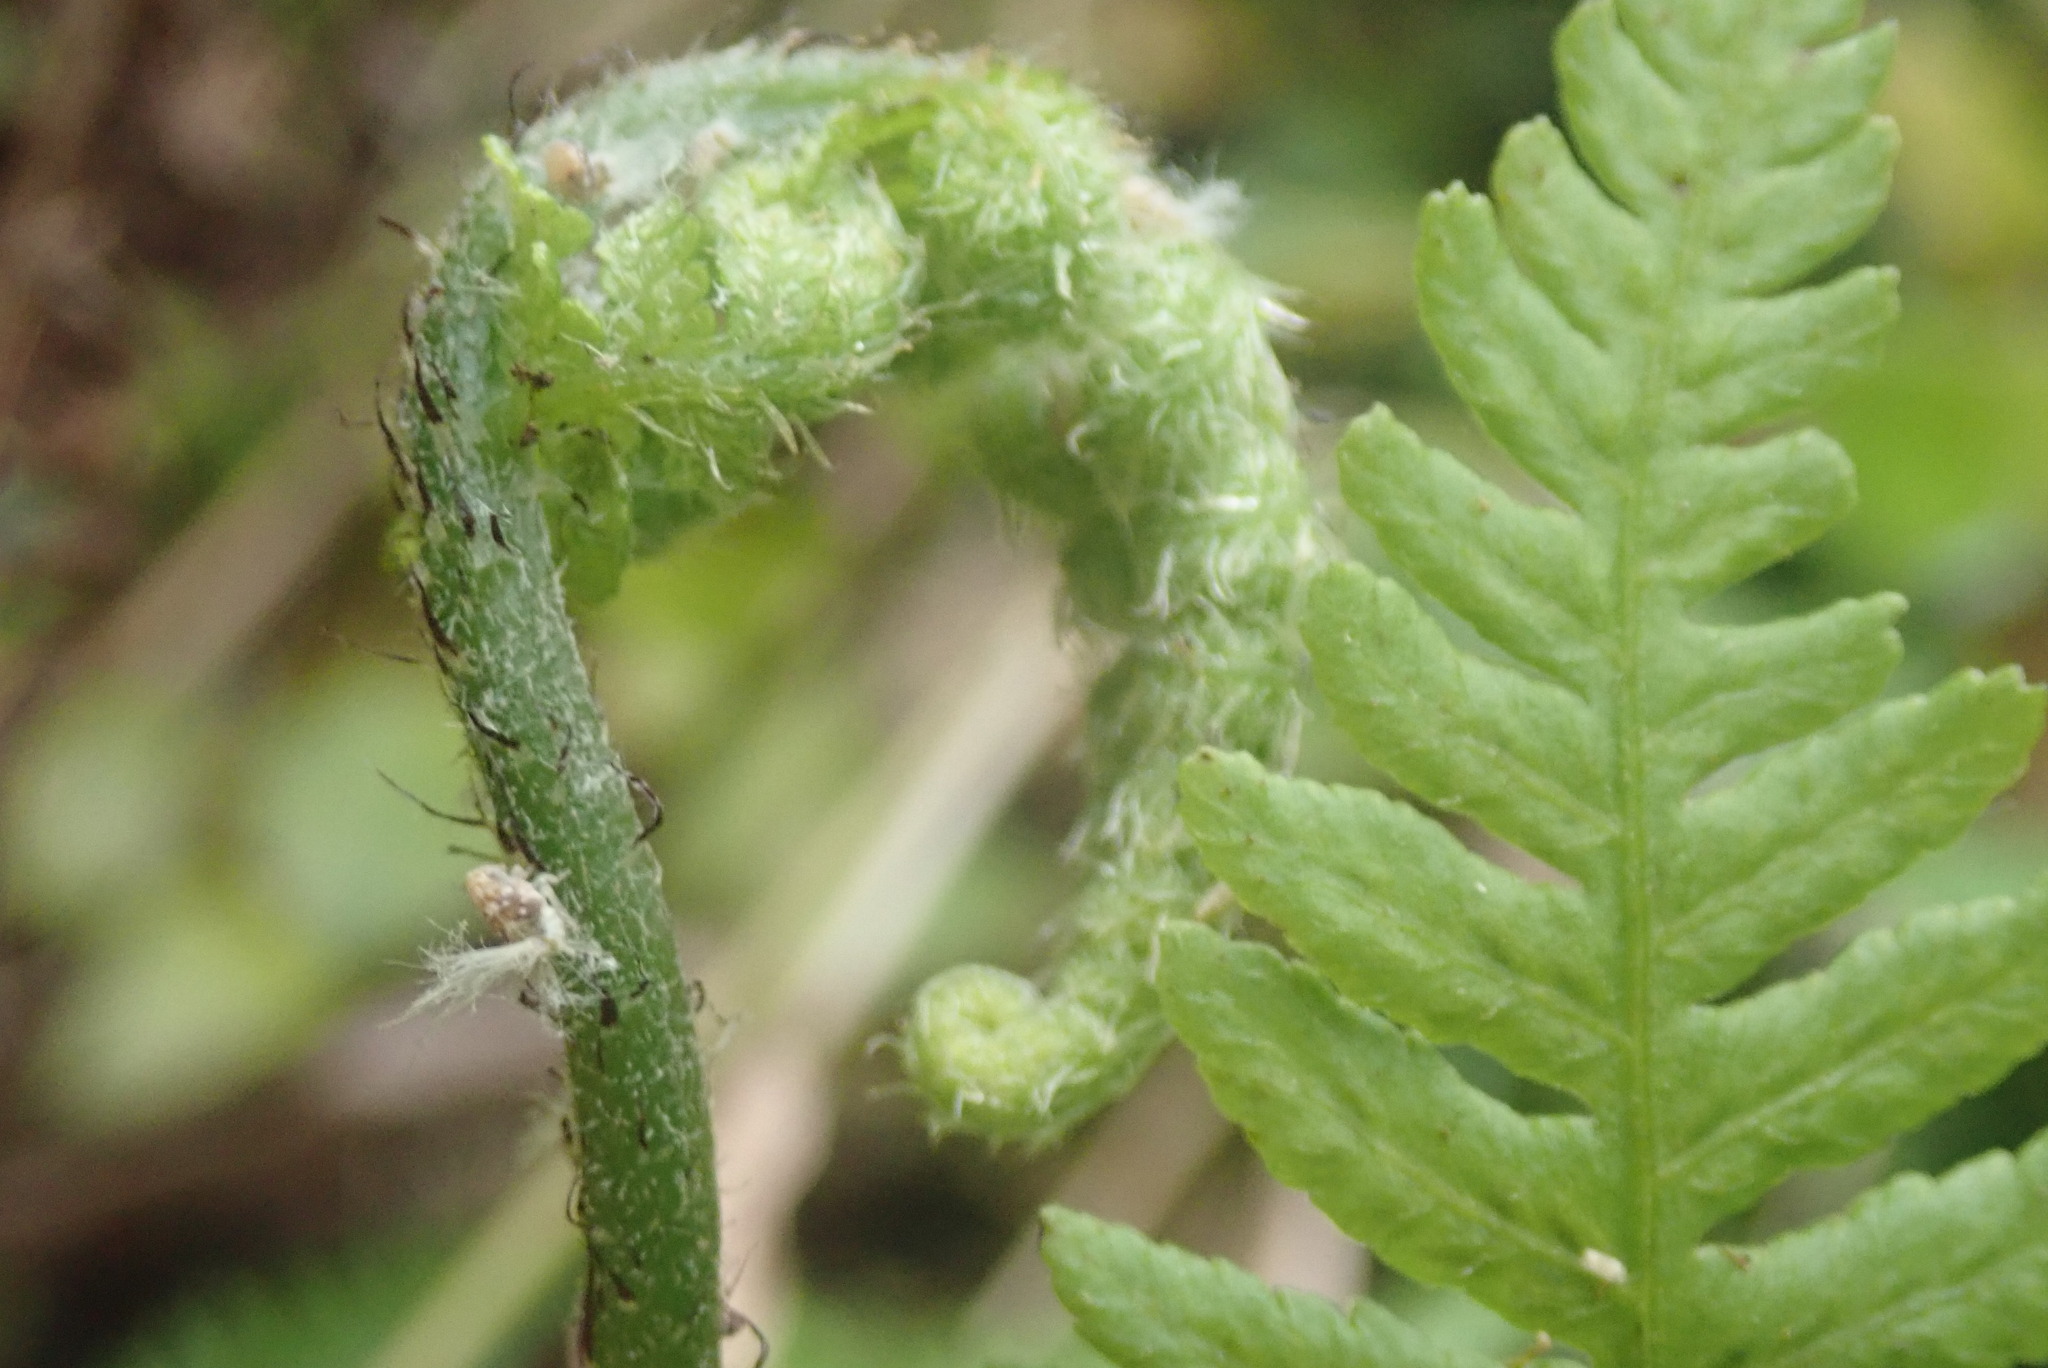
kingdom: Plantae
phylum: Tracheophyta
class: Polypodiopsida
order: Polypodiales
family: Athyriaceae
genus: Diplazium
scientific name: Diplazium congruum
